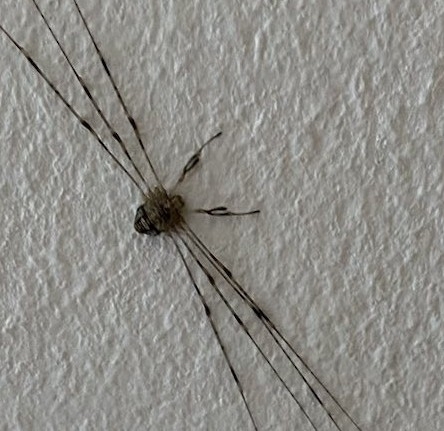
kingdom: Animalia
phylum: Arthropoda
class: Arachnida
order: Opiliones
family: Phalangiidae
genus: Dicranopalpus
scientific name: Dicranopalpus ramosus
